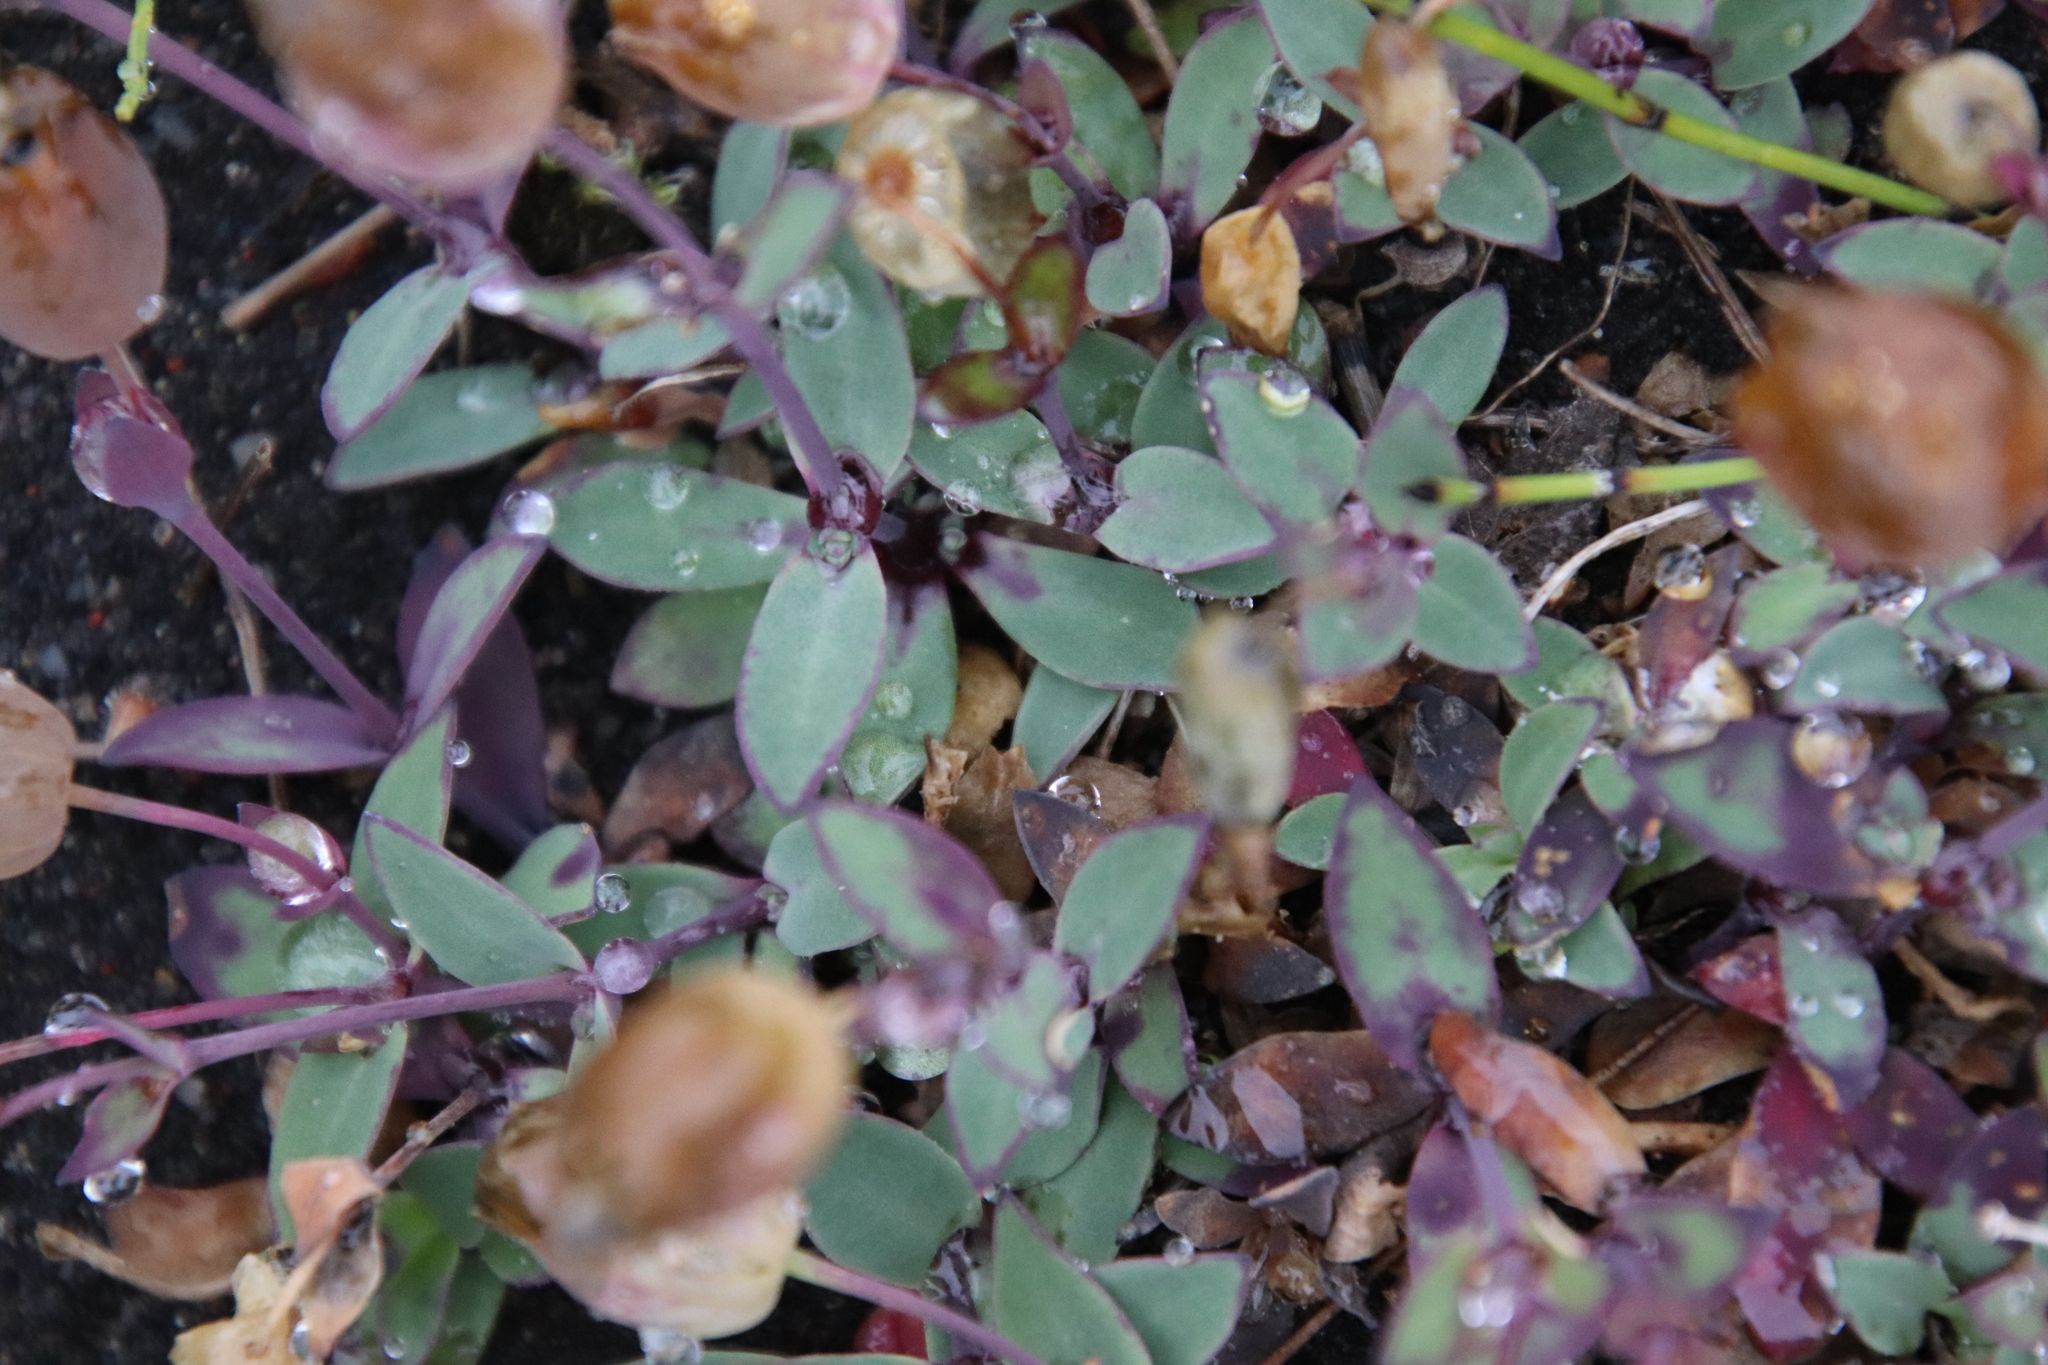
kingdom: Plantae
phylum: Tracheophyta
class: Magnoliopsida
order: Caryophyllales
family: Caryophyllaceae
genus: Silene
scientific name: Silene uniflora
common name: Sea campion
